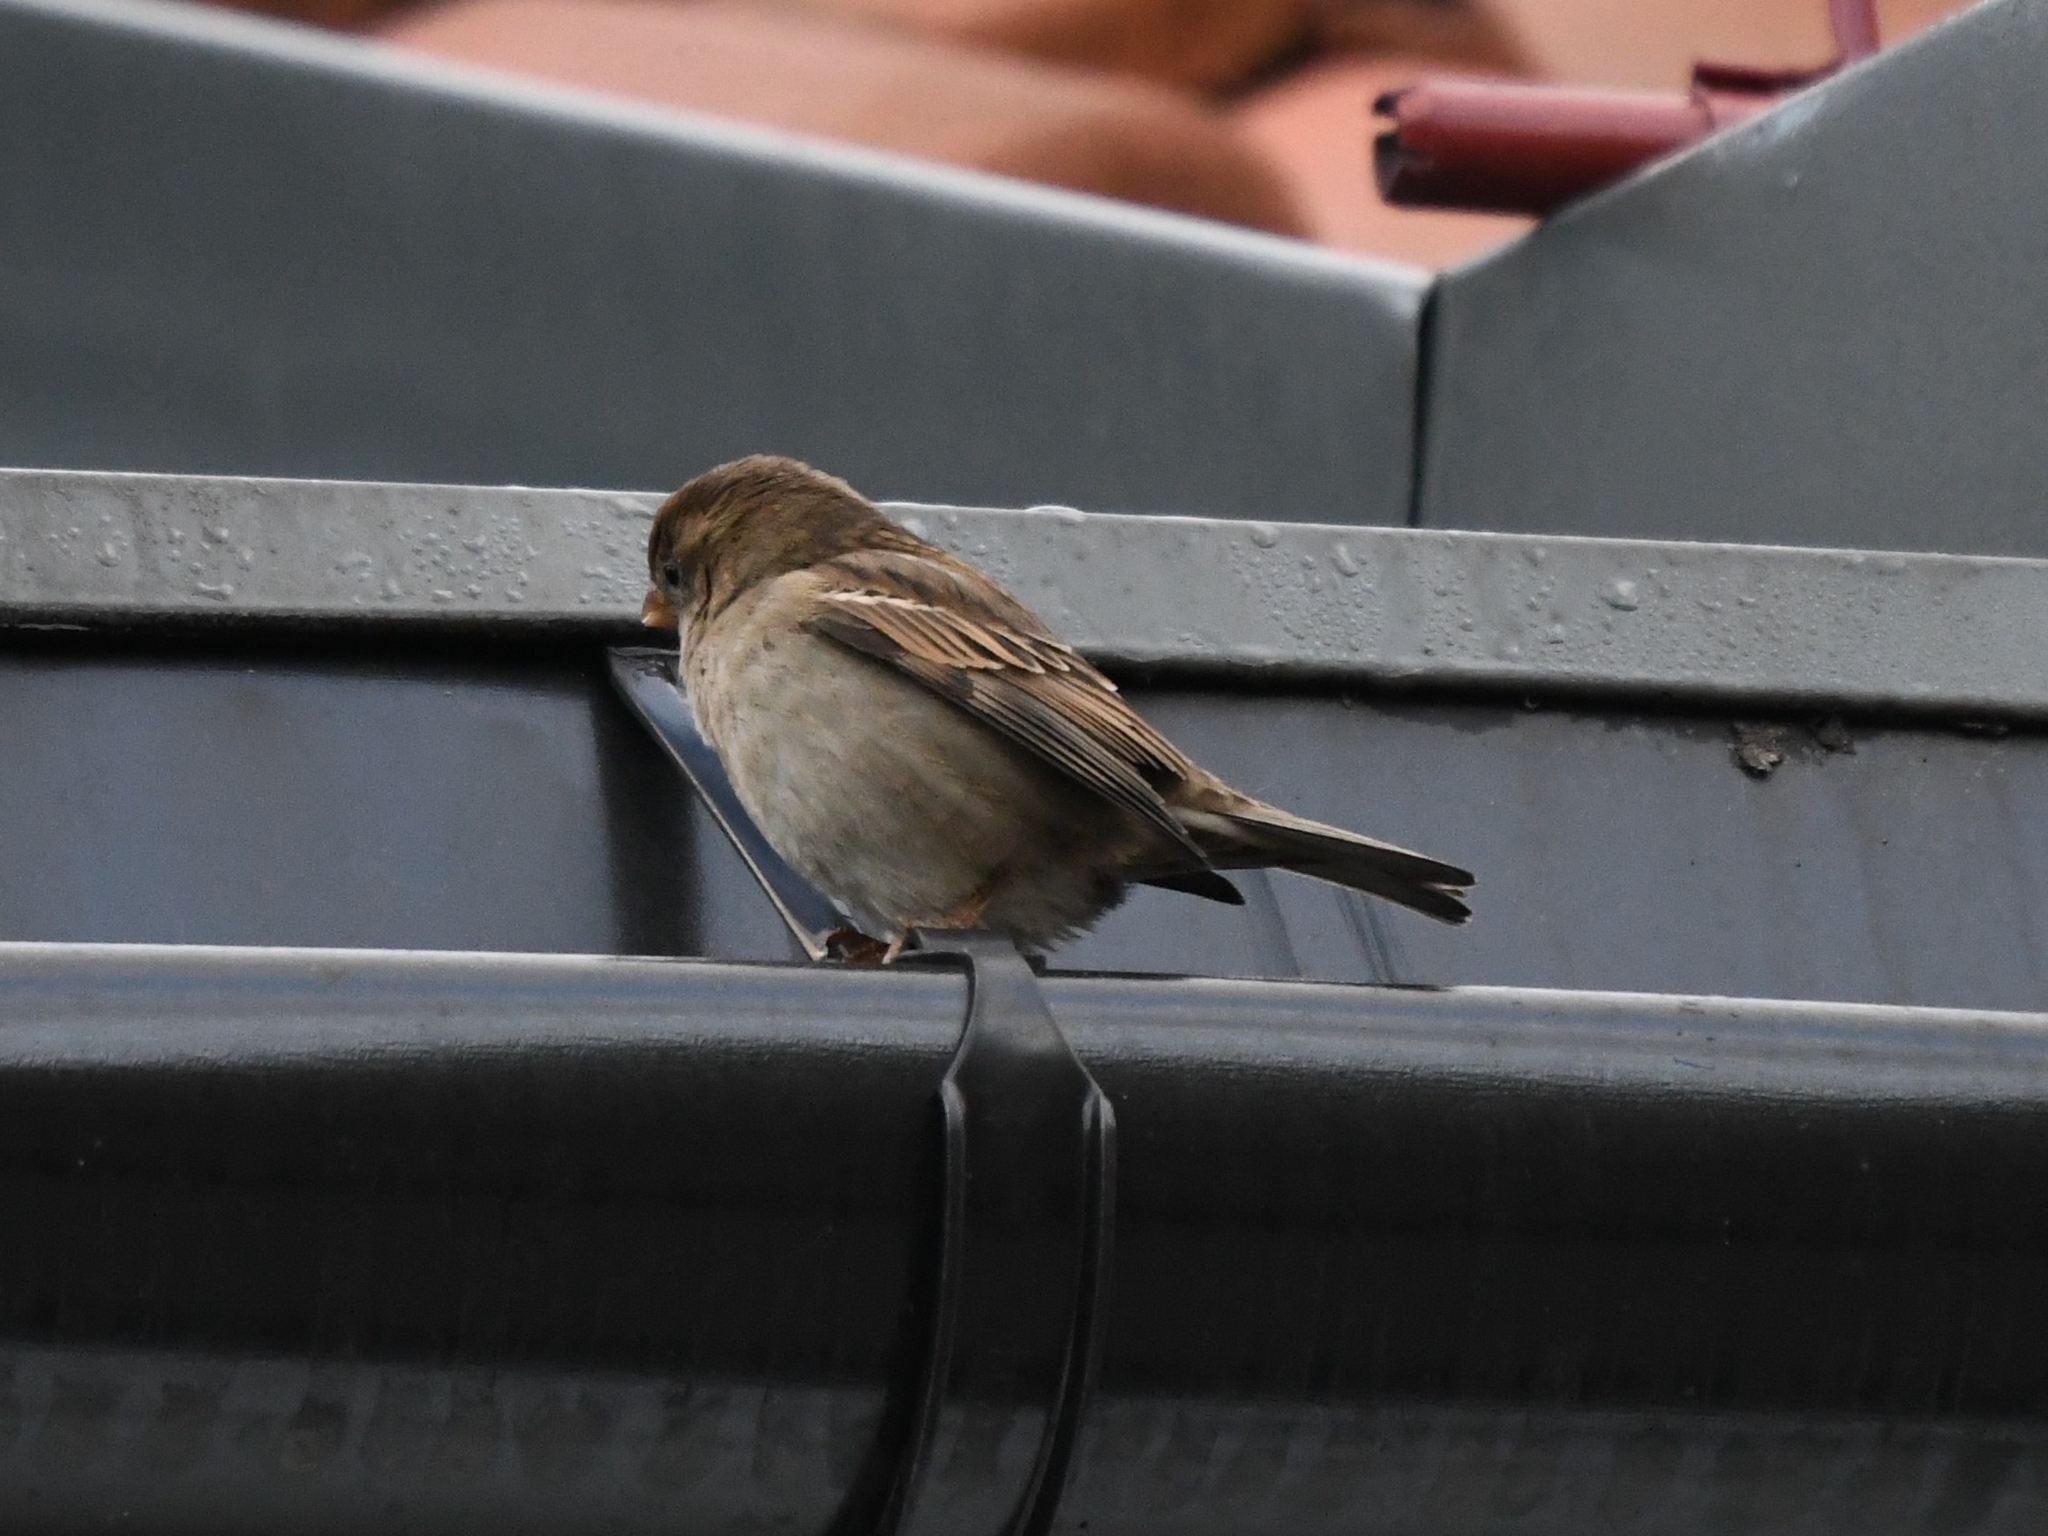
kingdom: Animalia
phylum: Chordata
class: Aves
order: Passeriformes
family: Passeridae
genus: Passer
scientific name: Passer domesticus
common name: House sparrow
